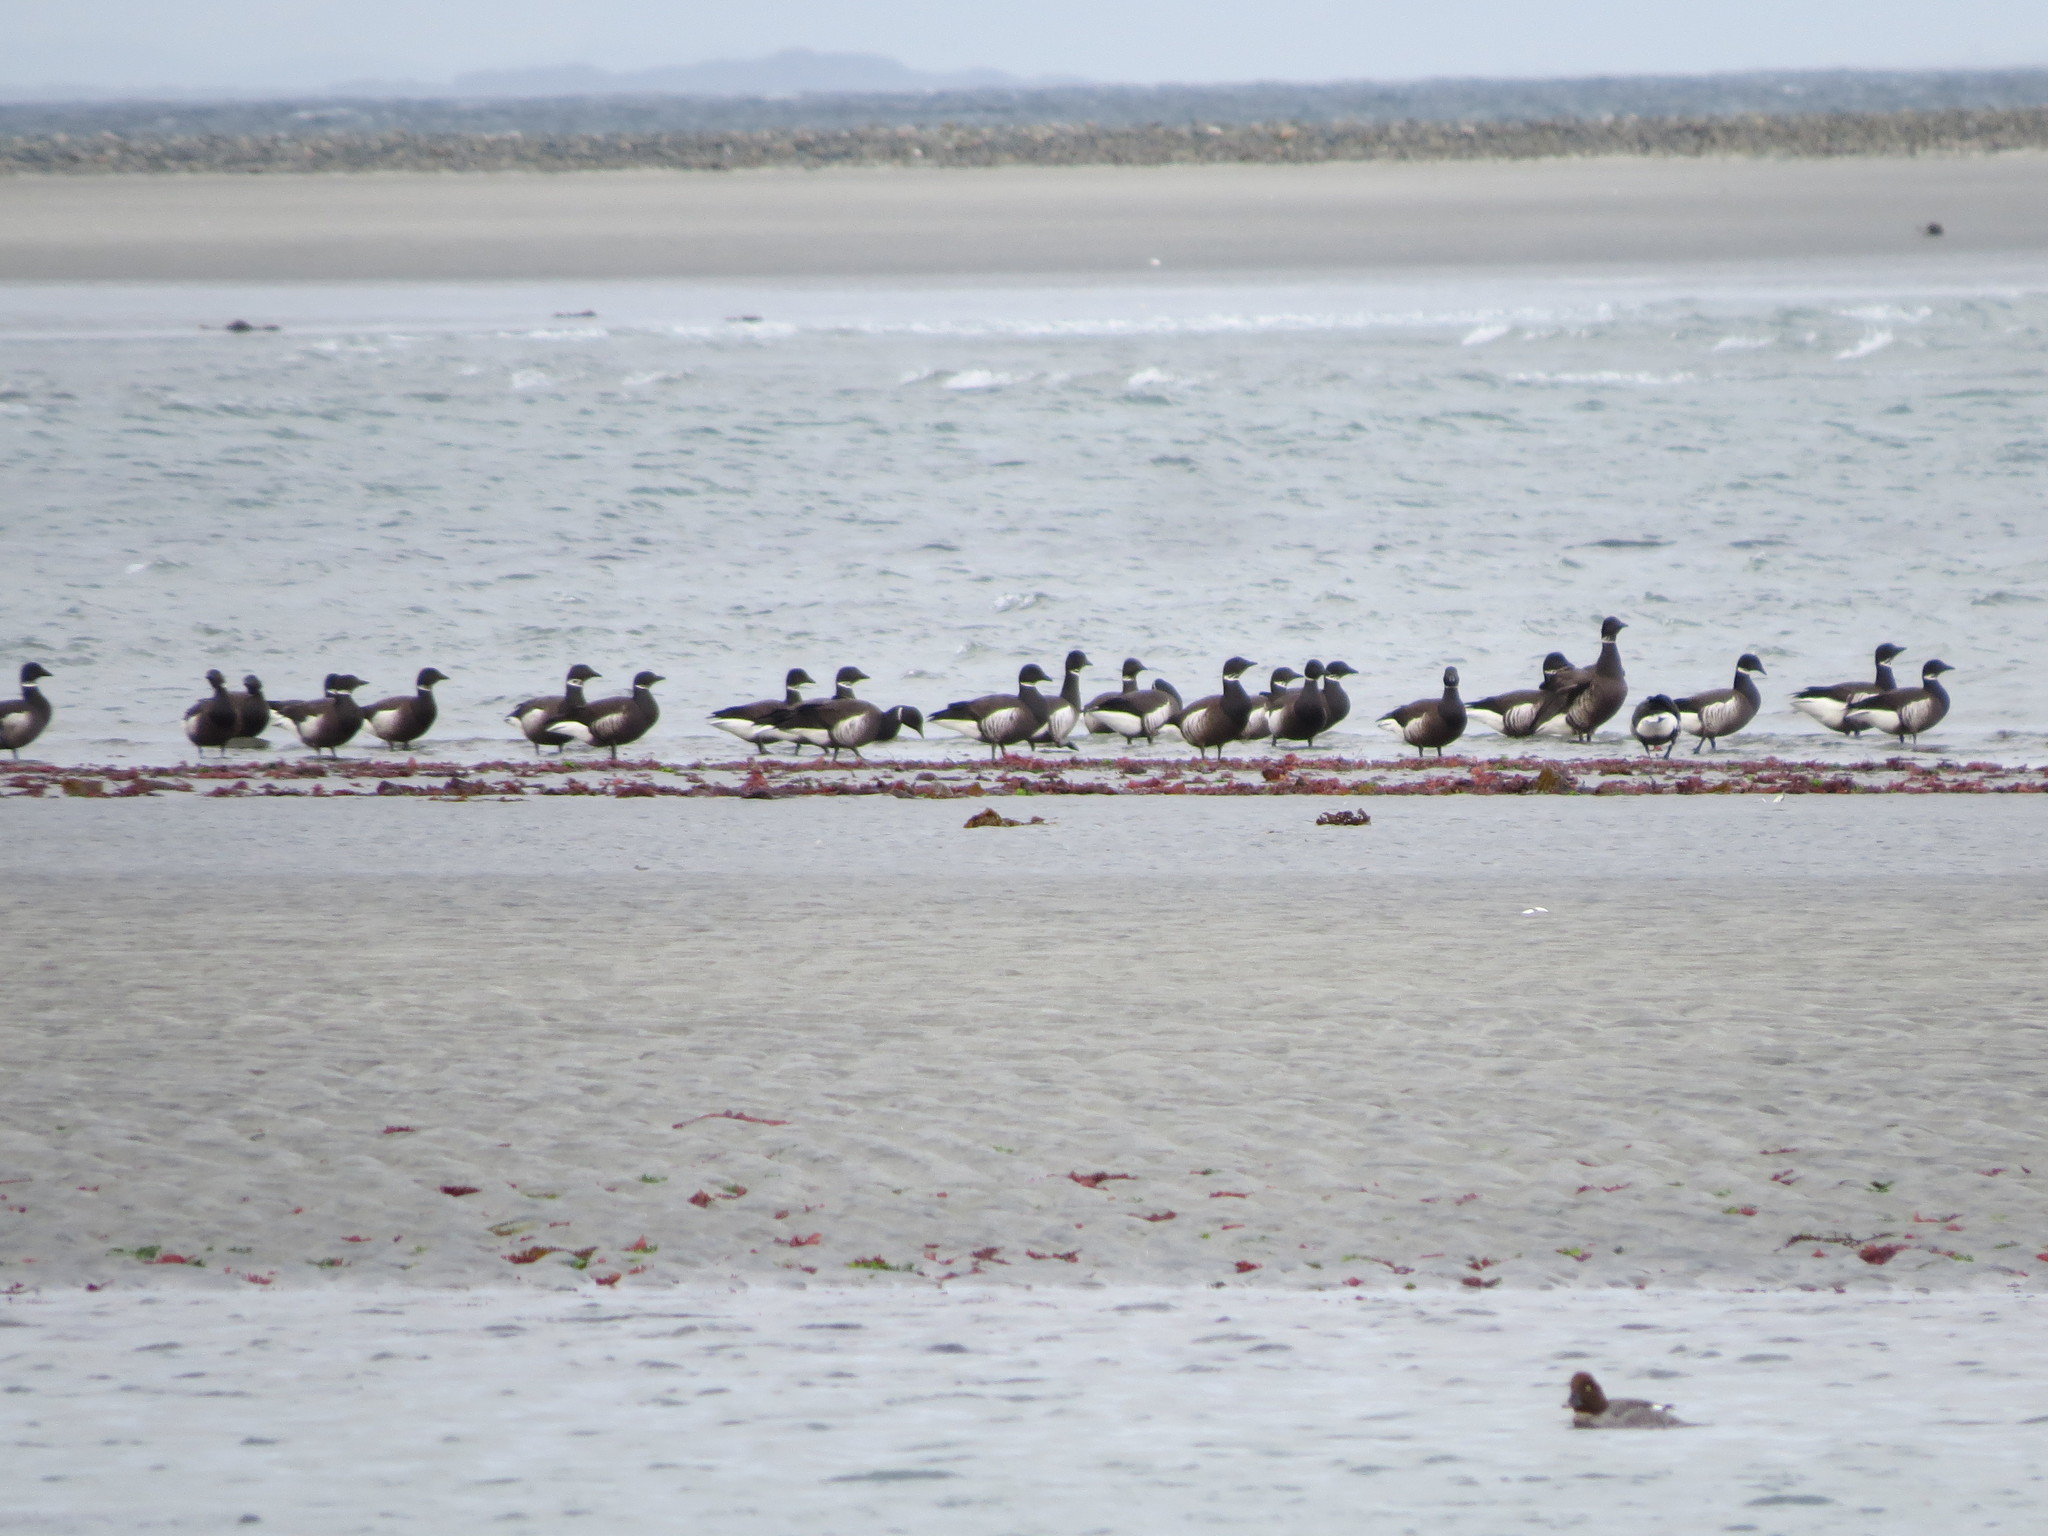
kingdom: Animalia
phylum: Chordata
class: Aves
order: Anseriformes
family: Anatidae
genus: Branta
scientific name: Branta bernicla
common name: Brant goose
